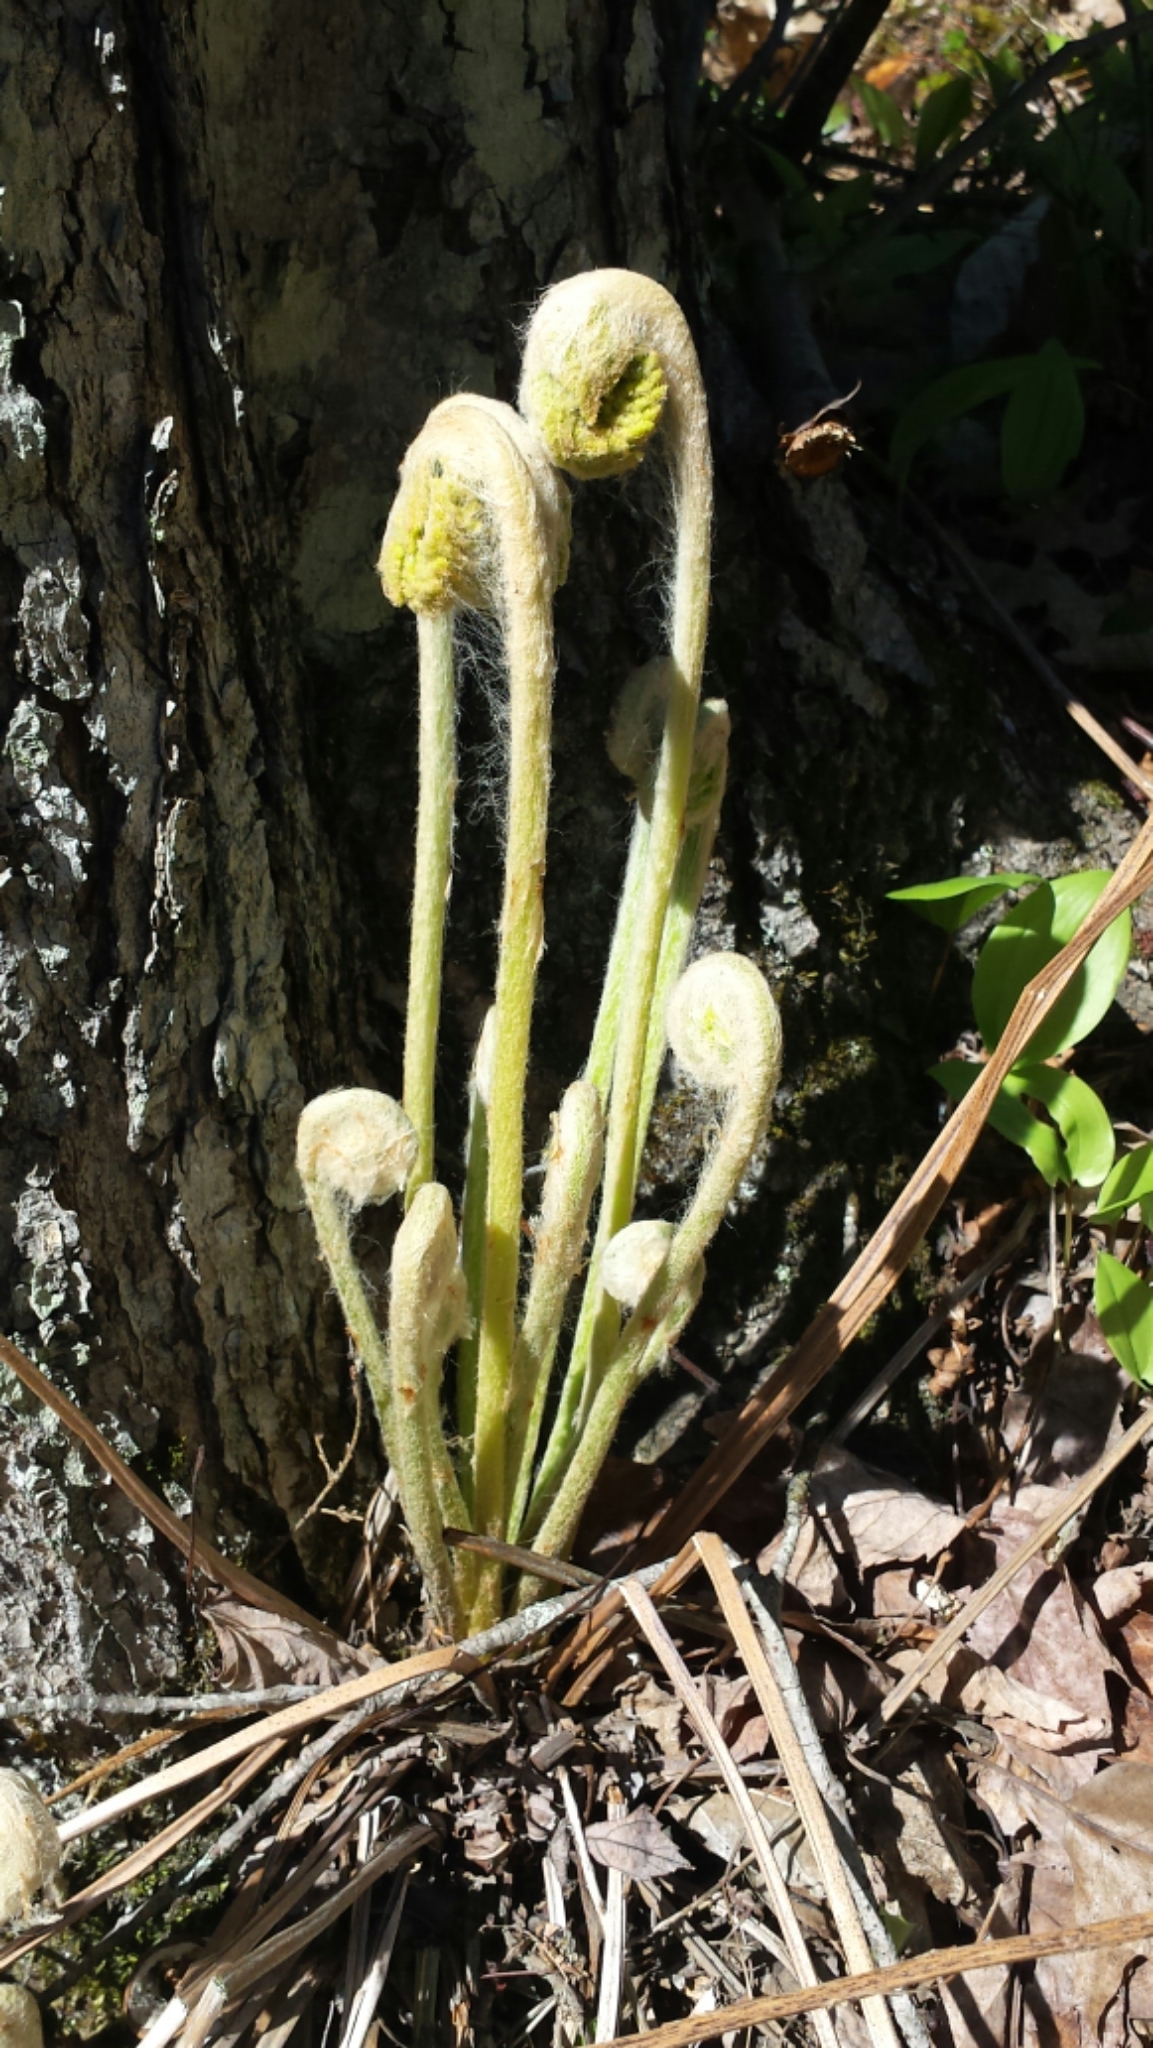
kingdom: Plantae
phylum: Tracheophyta
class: Polypodiopsida
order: Osmundales
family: Osmundaceae
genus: Osmundastrum
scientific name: Osmundastrum cinnamomeum
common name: Cinnamon fern
